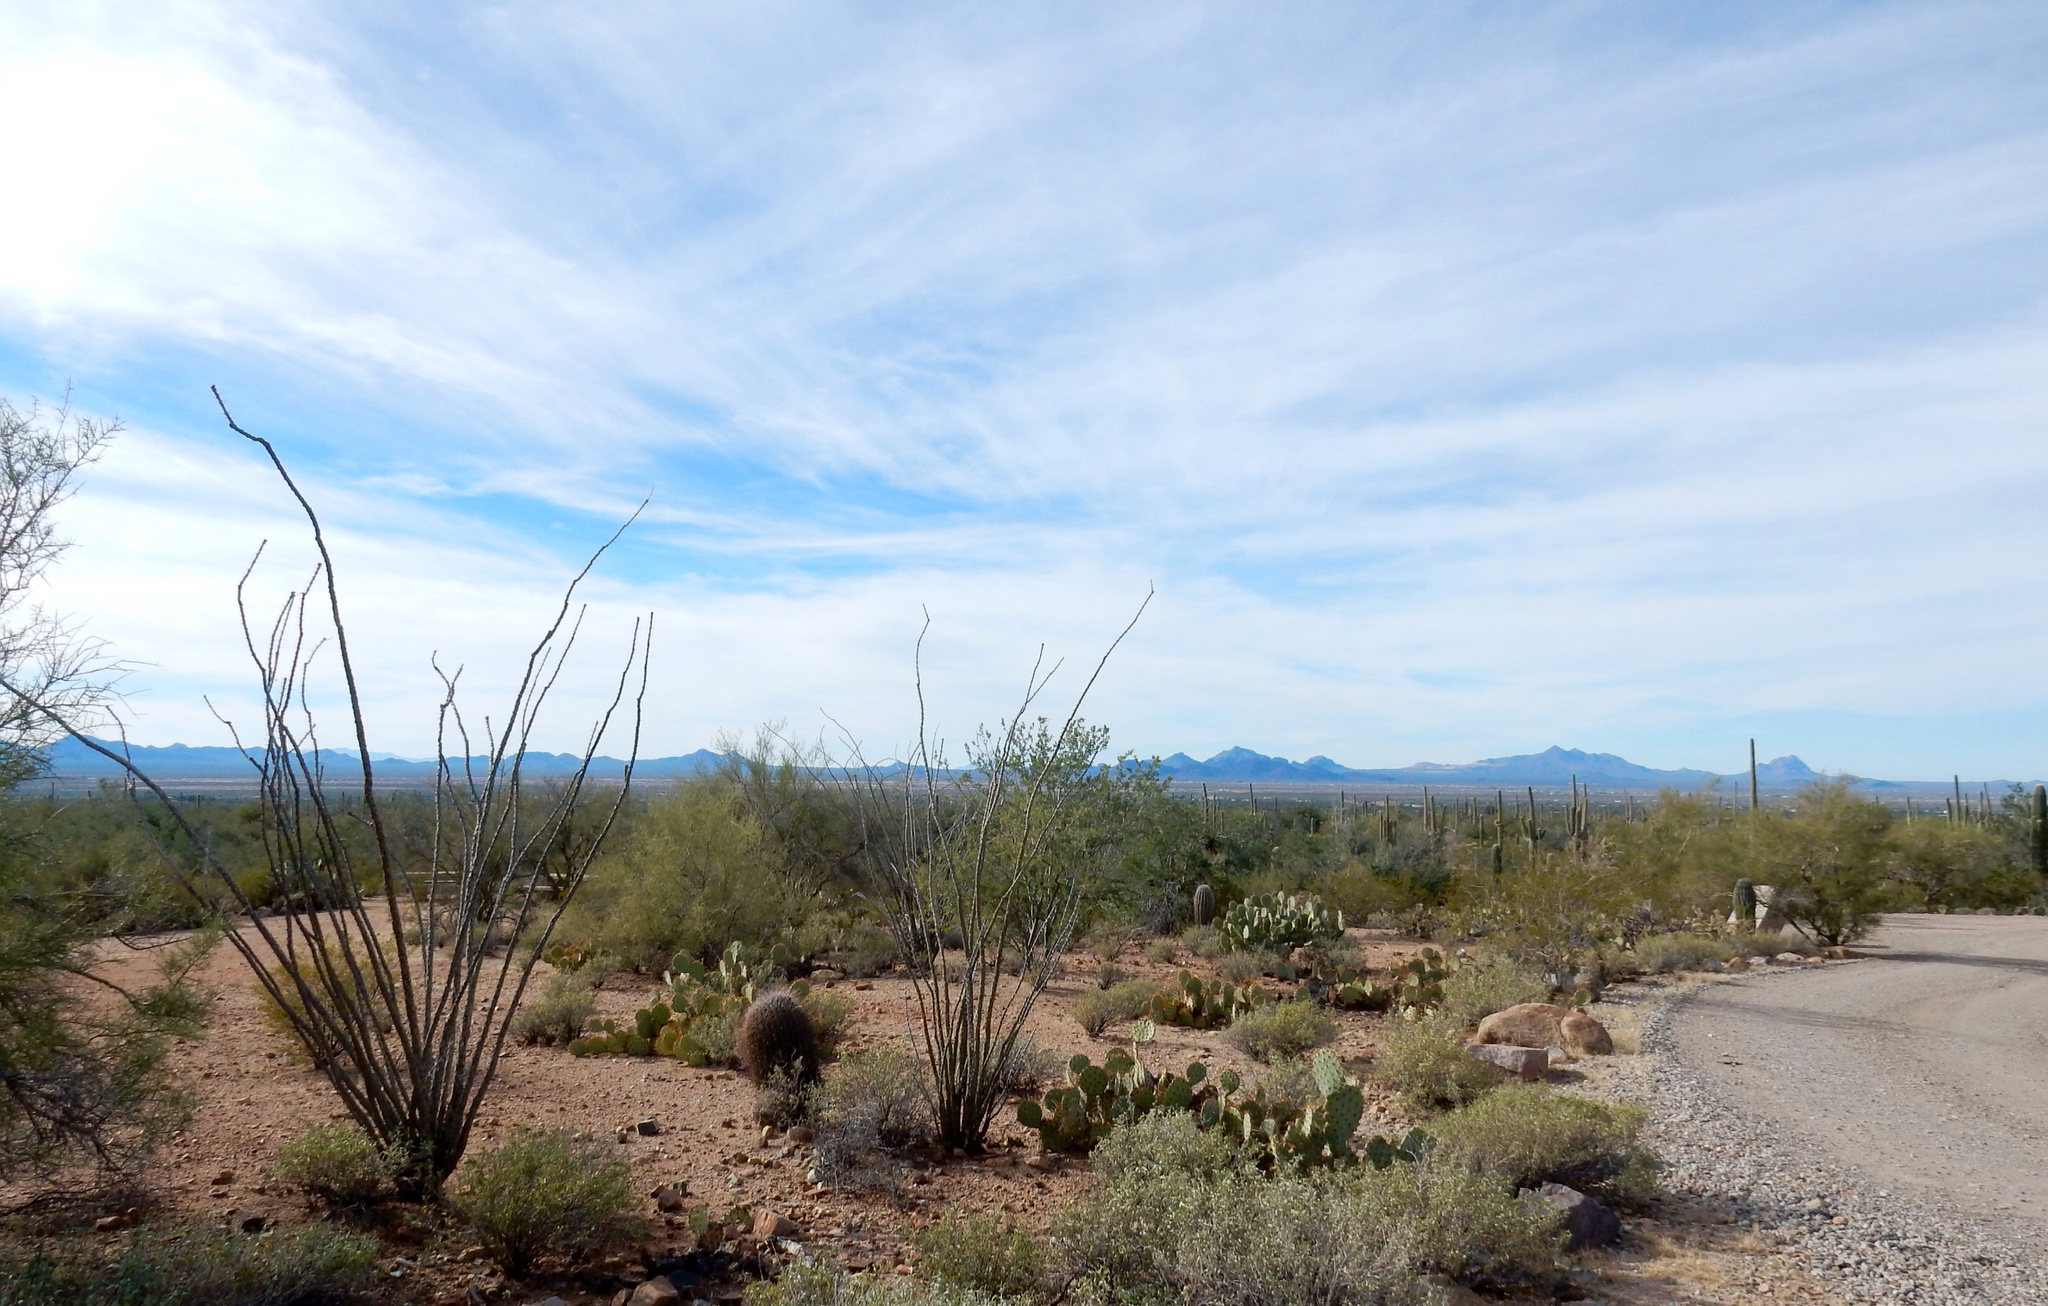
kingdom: Plantae
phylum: Tracheophyta
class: Magnoliopsida
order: Ericales
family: Fouquieriaceae
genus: Fouquieria
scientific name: Fouquieria splendens
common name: Vine-cactus
